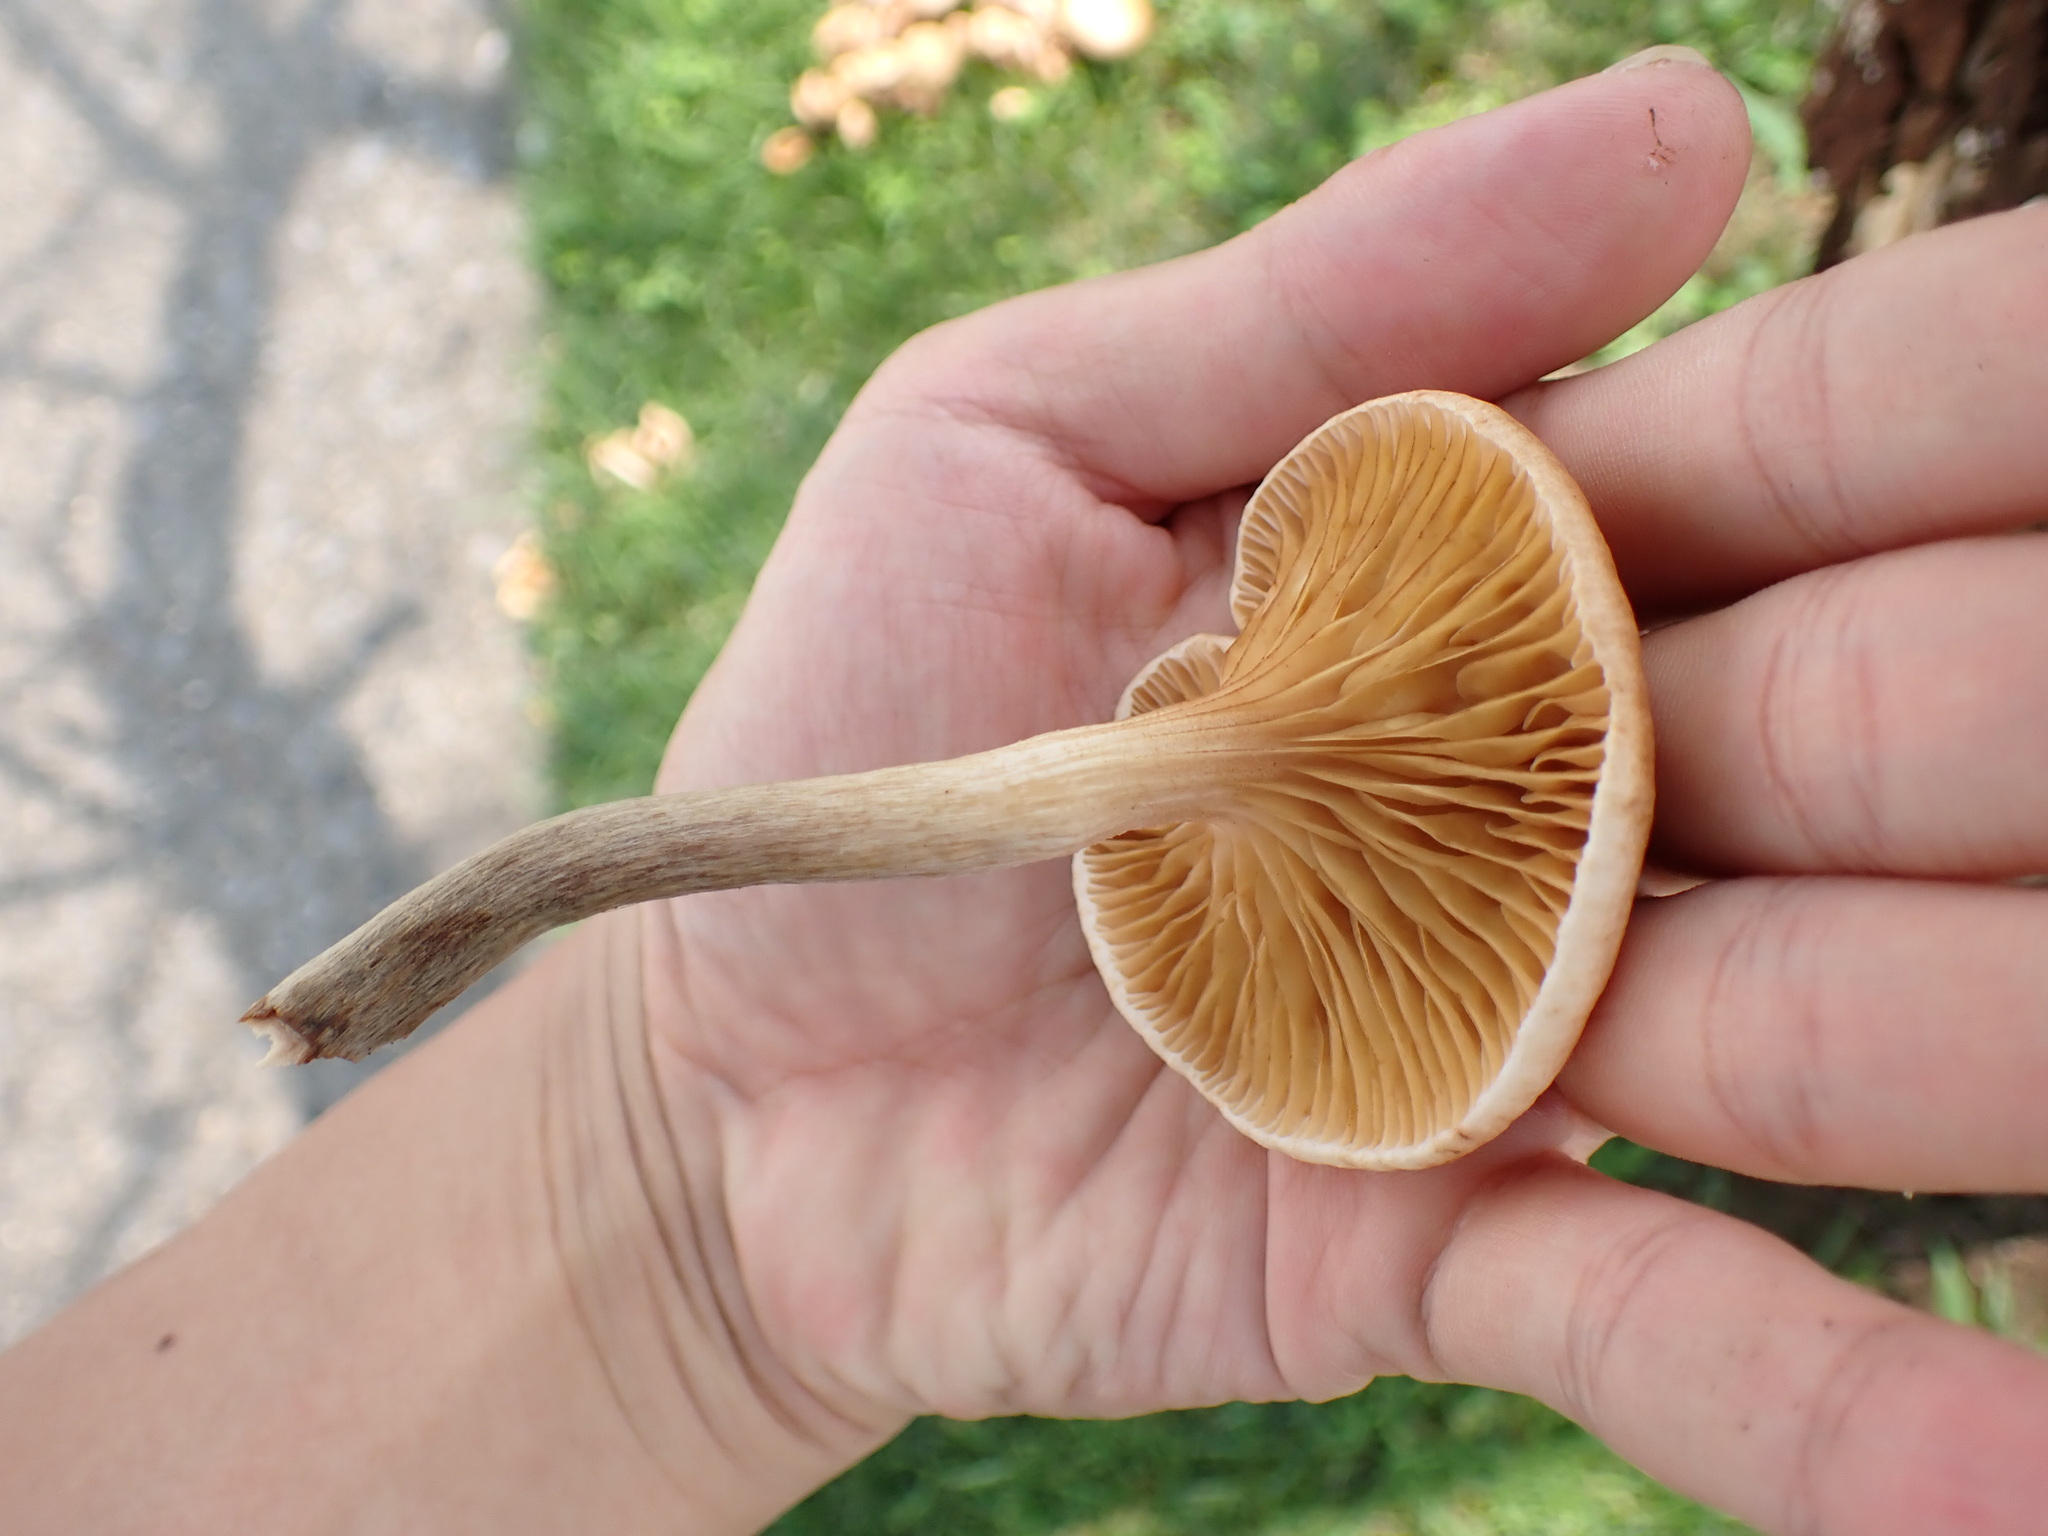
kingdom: Fungi
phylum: Basidiomycota
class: Agaricomycetes
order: Agaricales
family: Physalacriaceae
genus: Desarmillaria
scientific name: Desarmillaria caespitosa
